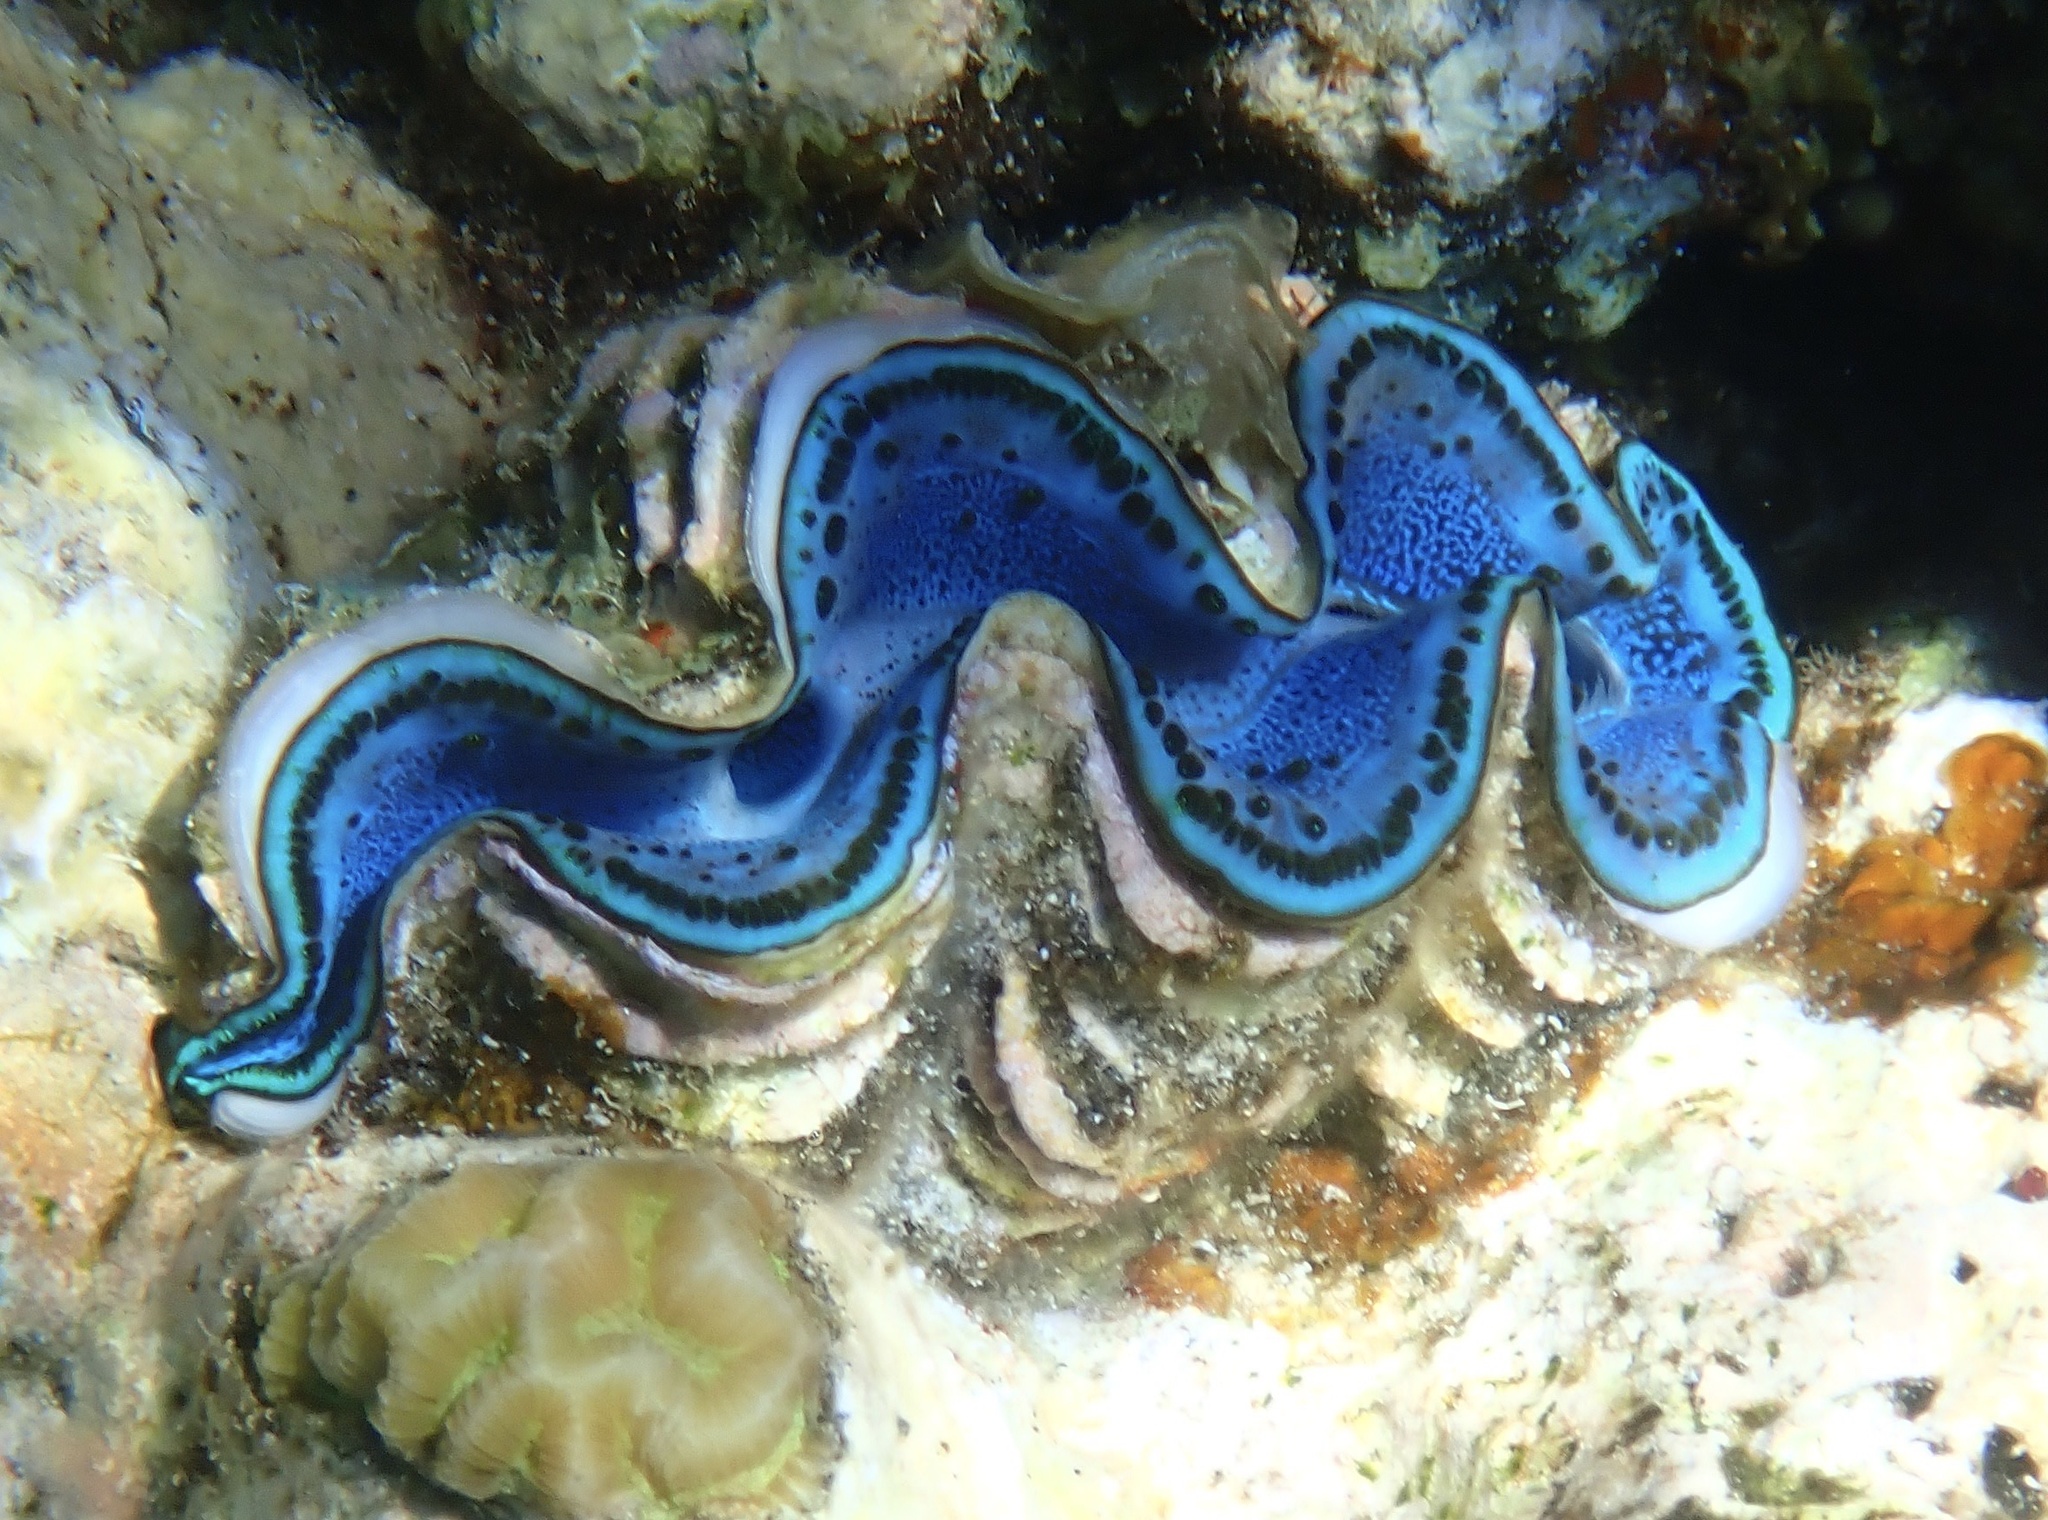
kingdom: Animalia
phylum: Mollusca
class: Bivalvia
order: Cardiida
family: Cardiidae
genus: Tridacna
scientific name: Tridacna maxima
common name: Small giant clam
